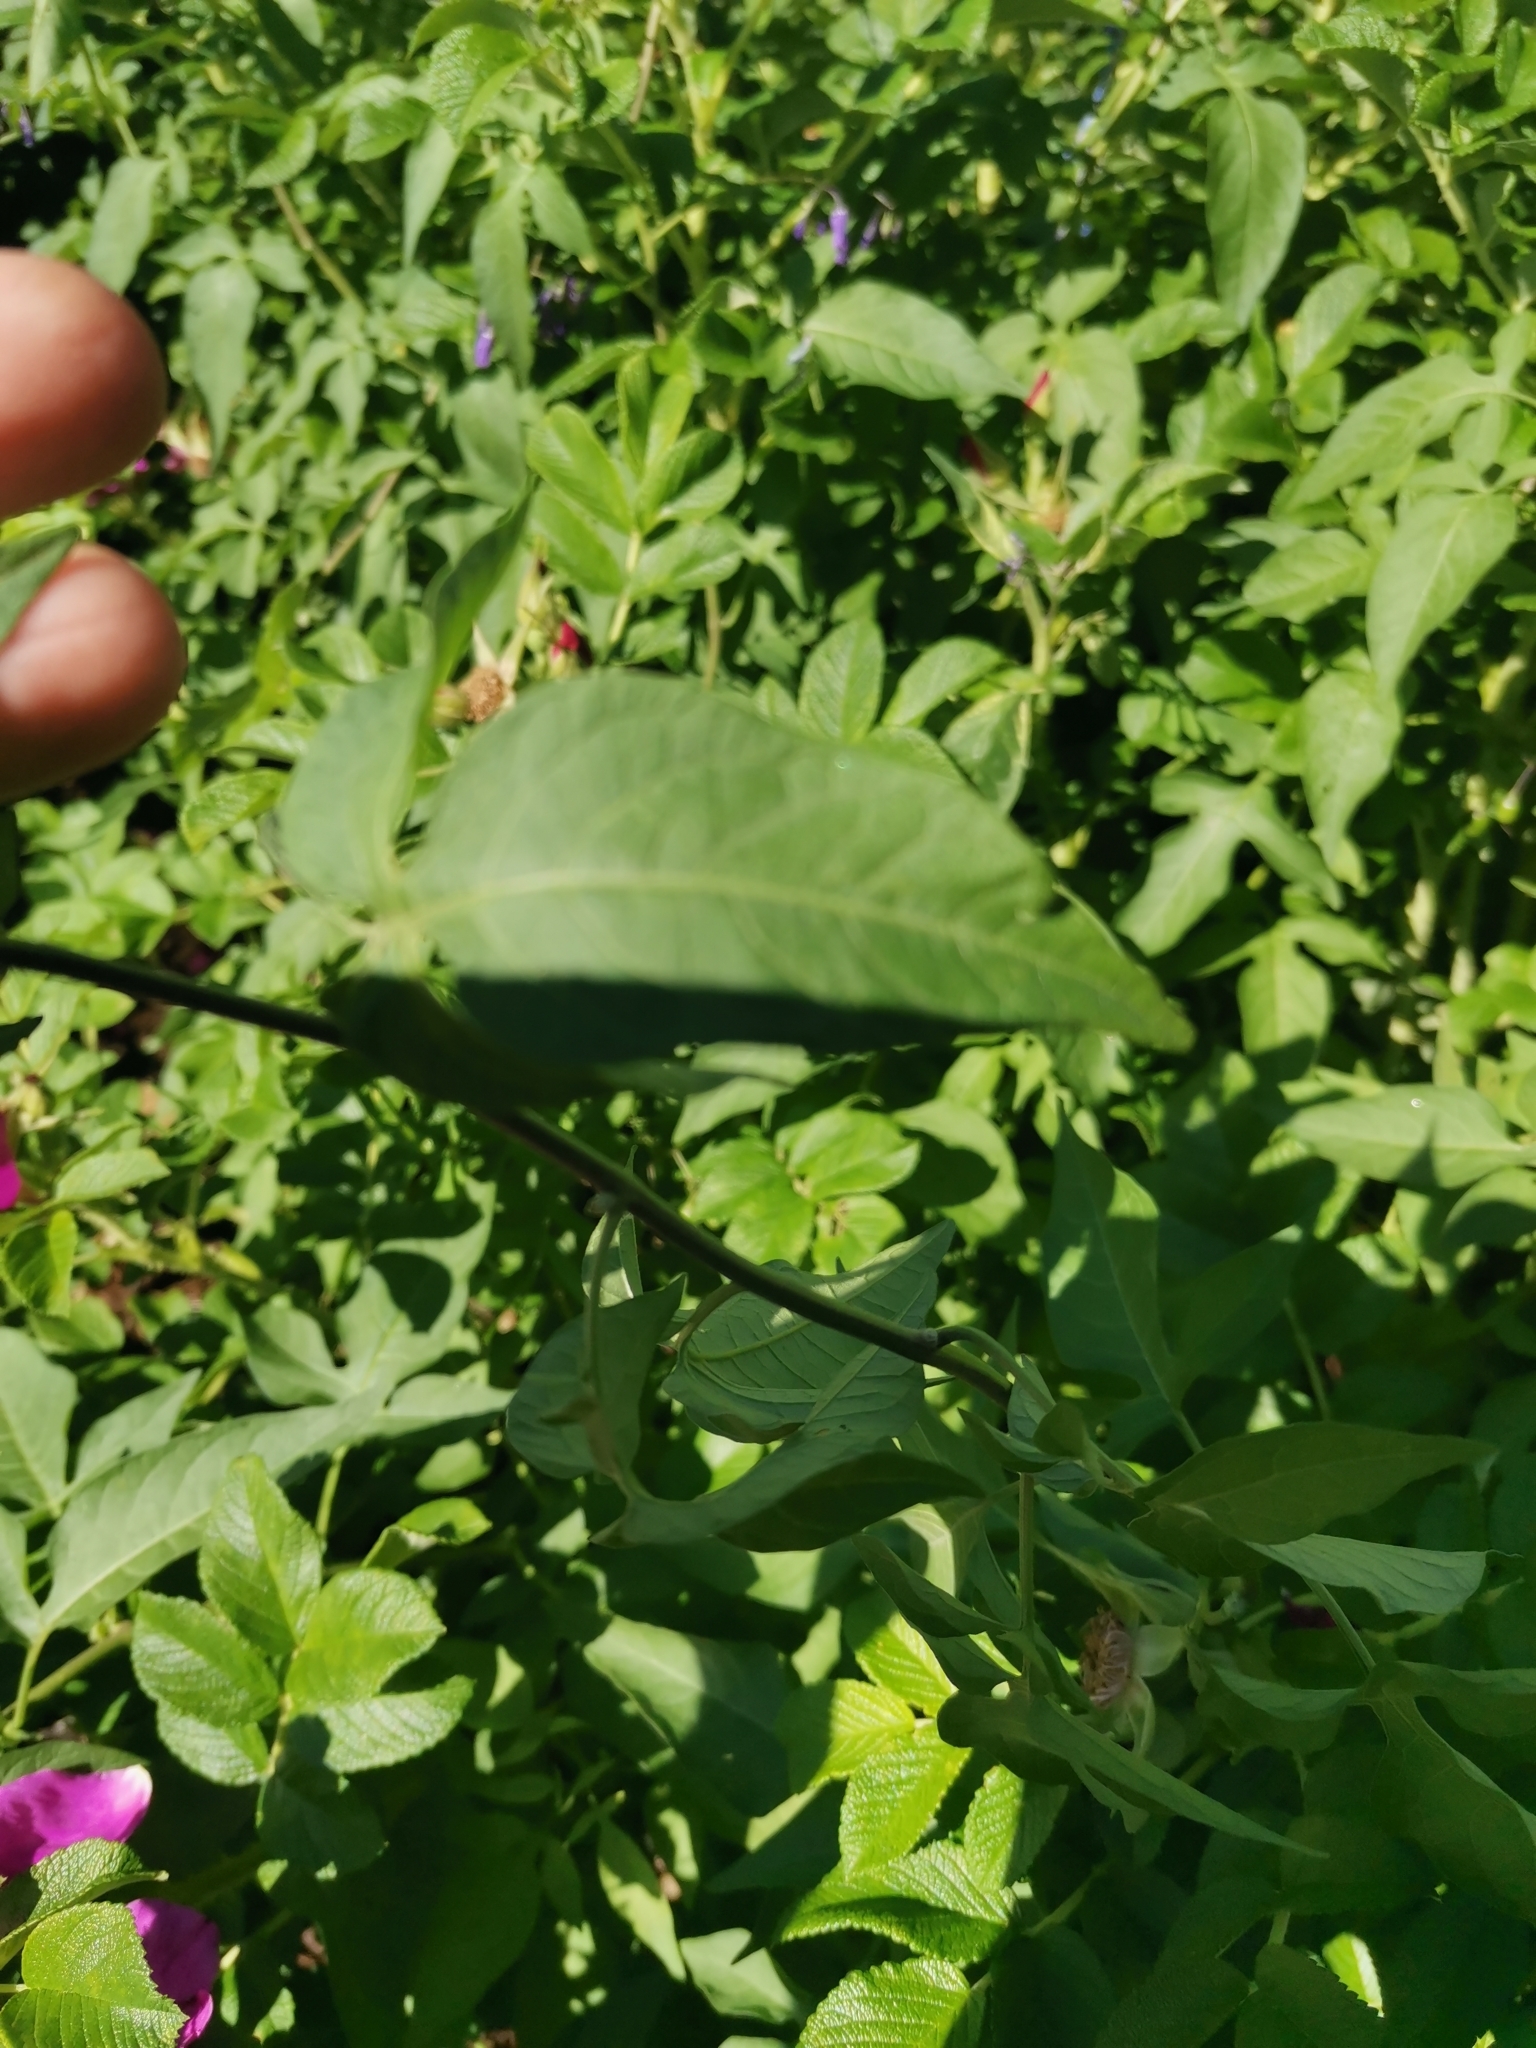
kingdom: Plantae
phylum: Tracheophyta
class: Magnoliopsida
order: Solanales
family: Solanaceae
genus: Solanum
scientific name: Solanum dulcamara
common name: Climbing nightshade
